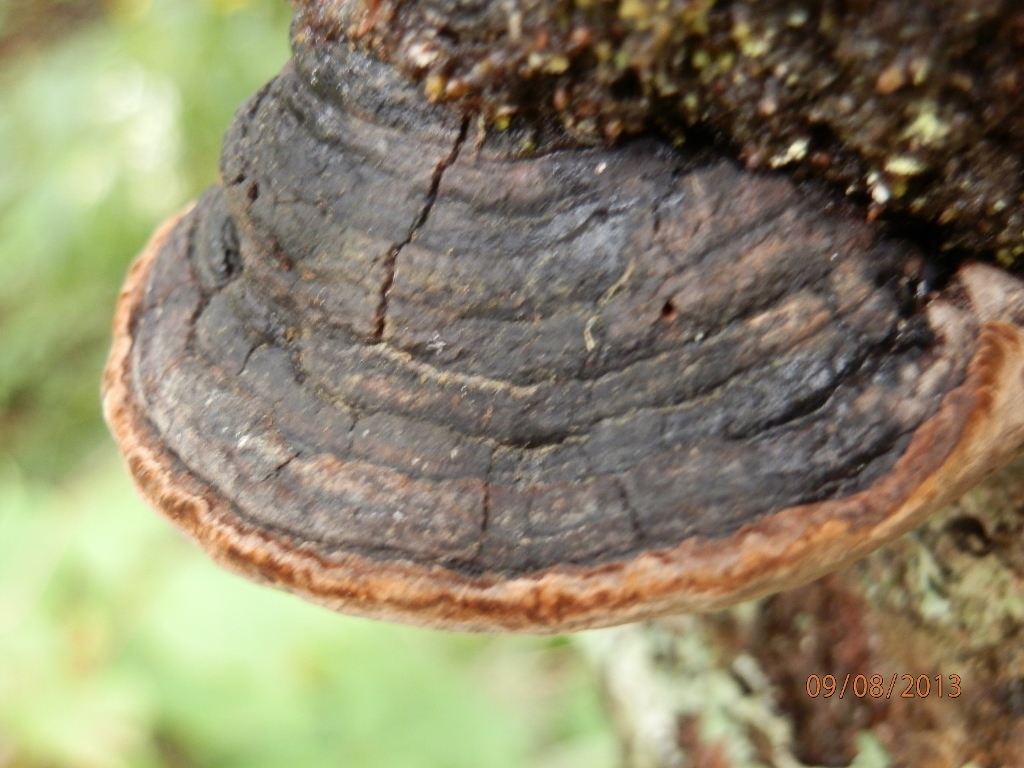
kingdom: Fungi
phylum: Basidiomycota
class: Agaricomycetes
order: Hymenochaetales
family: Hymenochaetaceae
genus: Phellinus
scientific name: Phellinus tremulae
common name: Aspen bracket
